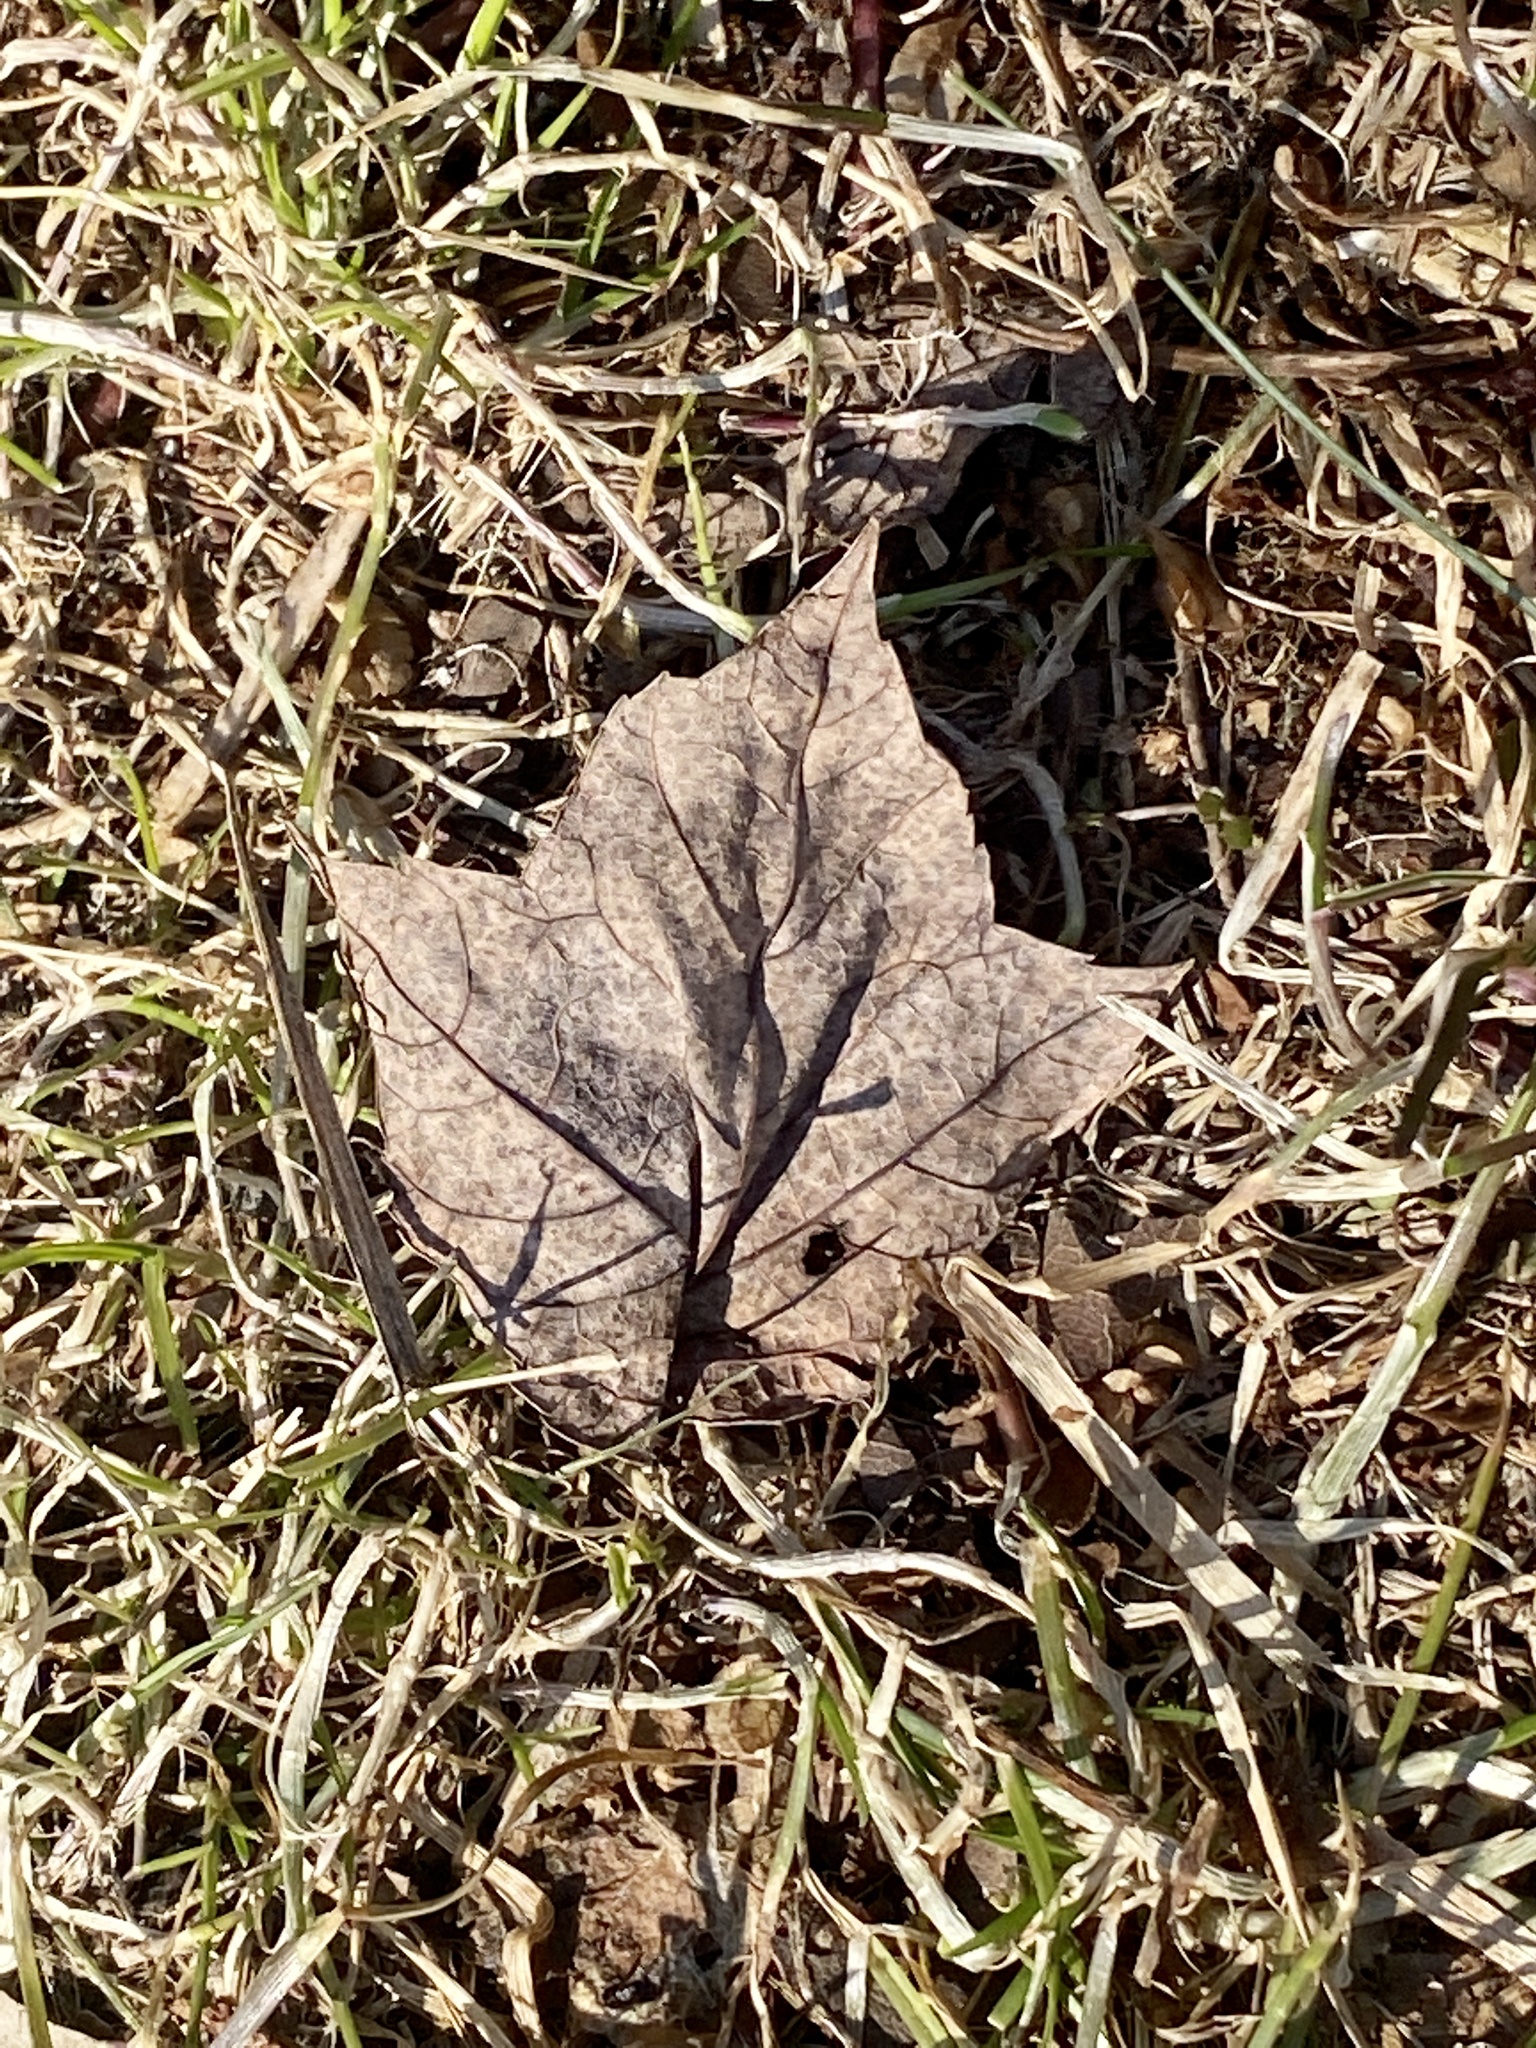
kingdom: Plantae
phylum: Tracheophyta
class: Magnoliopsida
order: Sapindales
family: Sapindaceae
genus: Acer
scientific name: Acer rubrum
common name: Red maple
